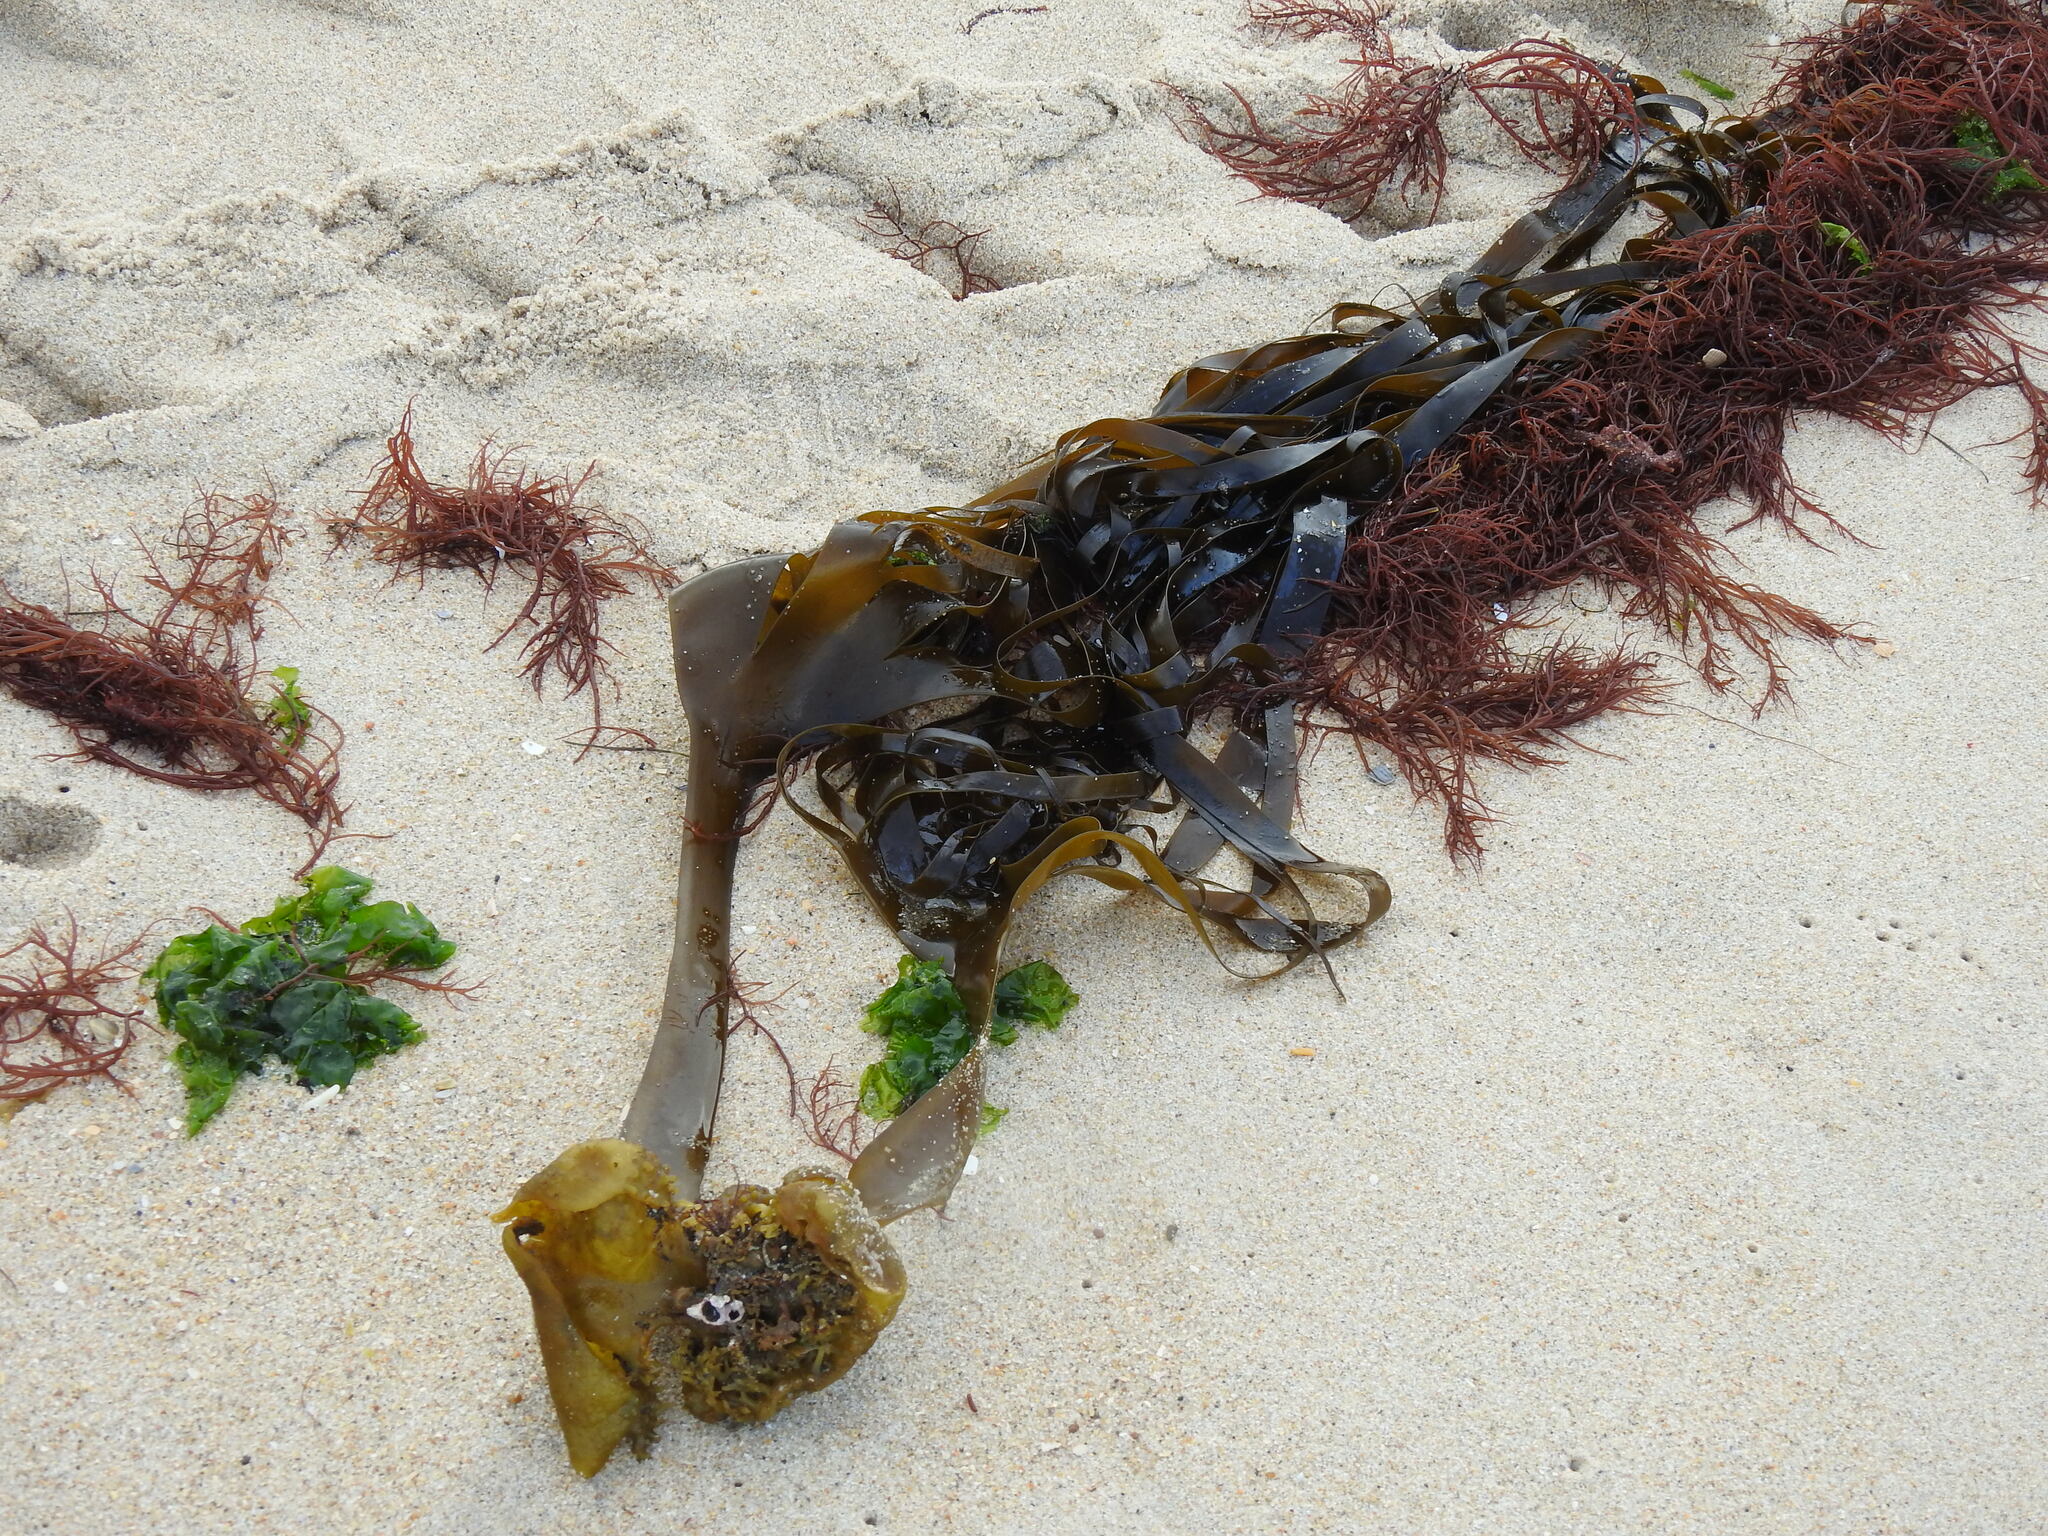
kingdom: Chromista
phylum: Ochrophyta
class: Phaeophyceae
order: Tilopteridales
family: Phyllariaceae
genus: Saccorhiza
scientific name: Saccorhiza polyschides
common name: Furbelows
